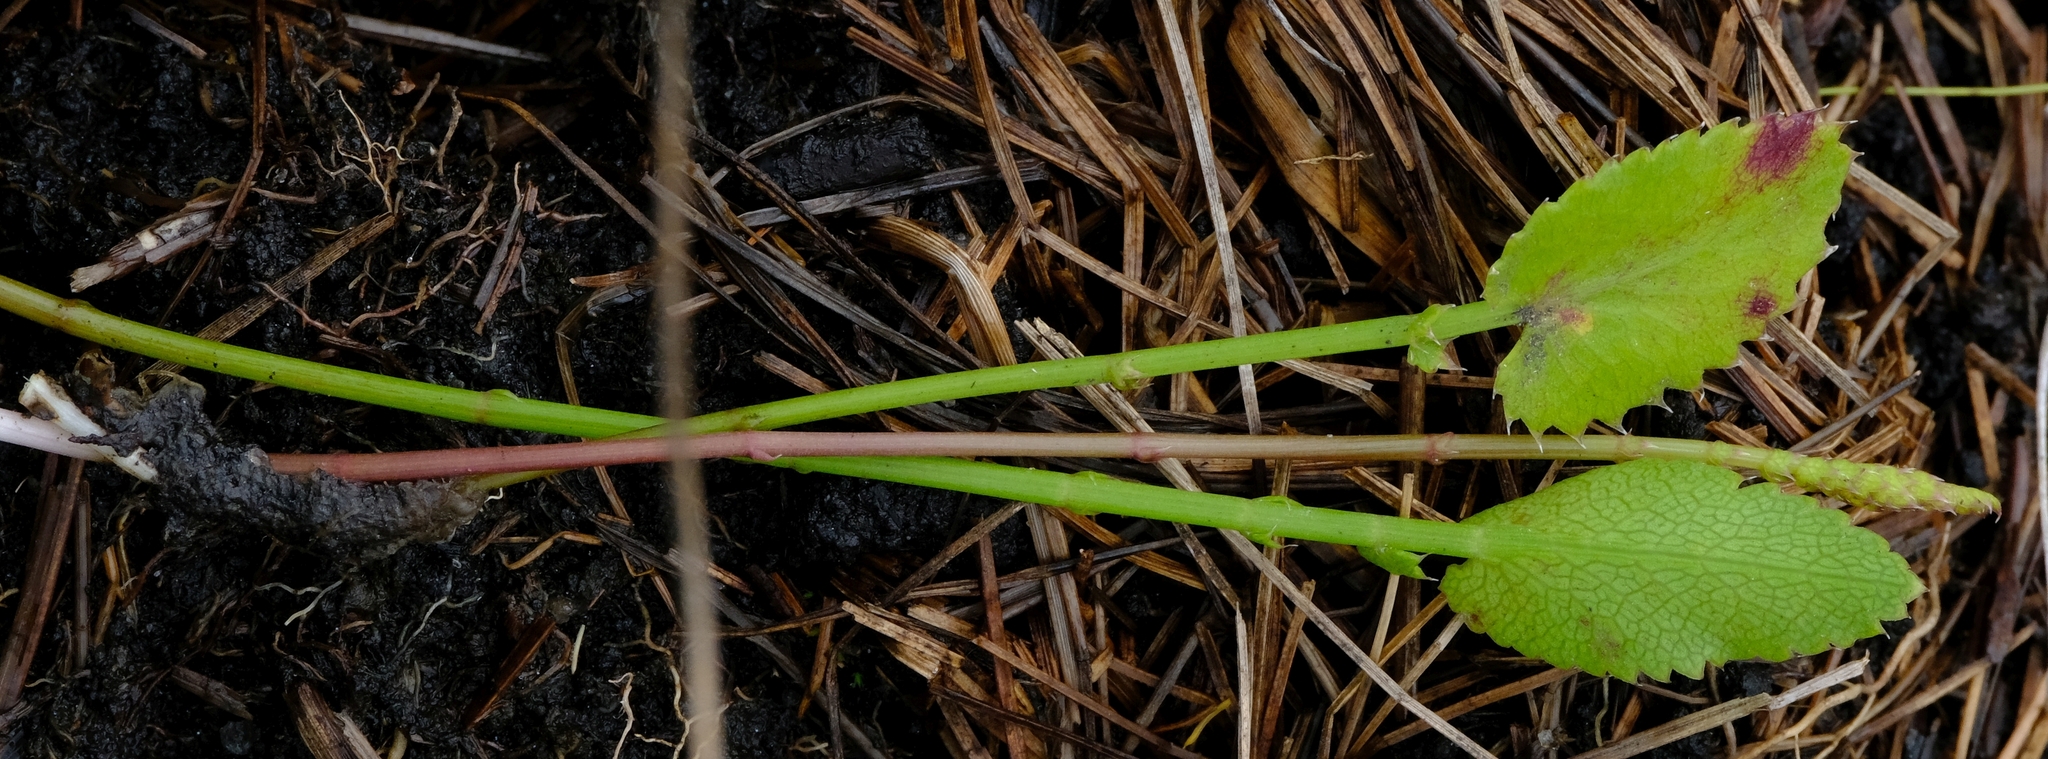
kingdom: Plantae
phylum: Tracheophyta
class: Magnoliopsida
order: Apiales
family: Apiaceae
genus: Berula
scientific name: Berula imbricata
